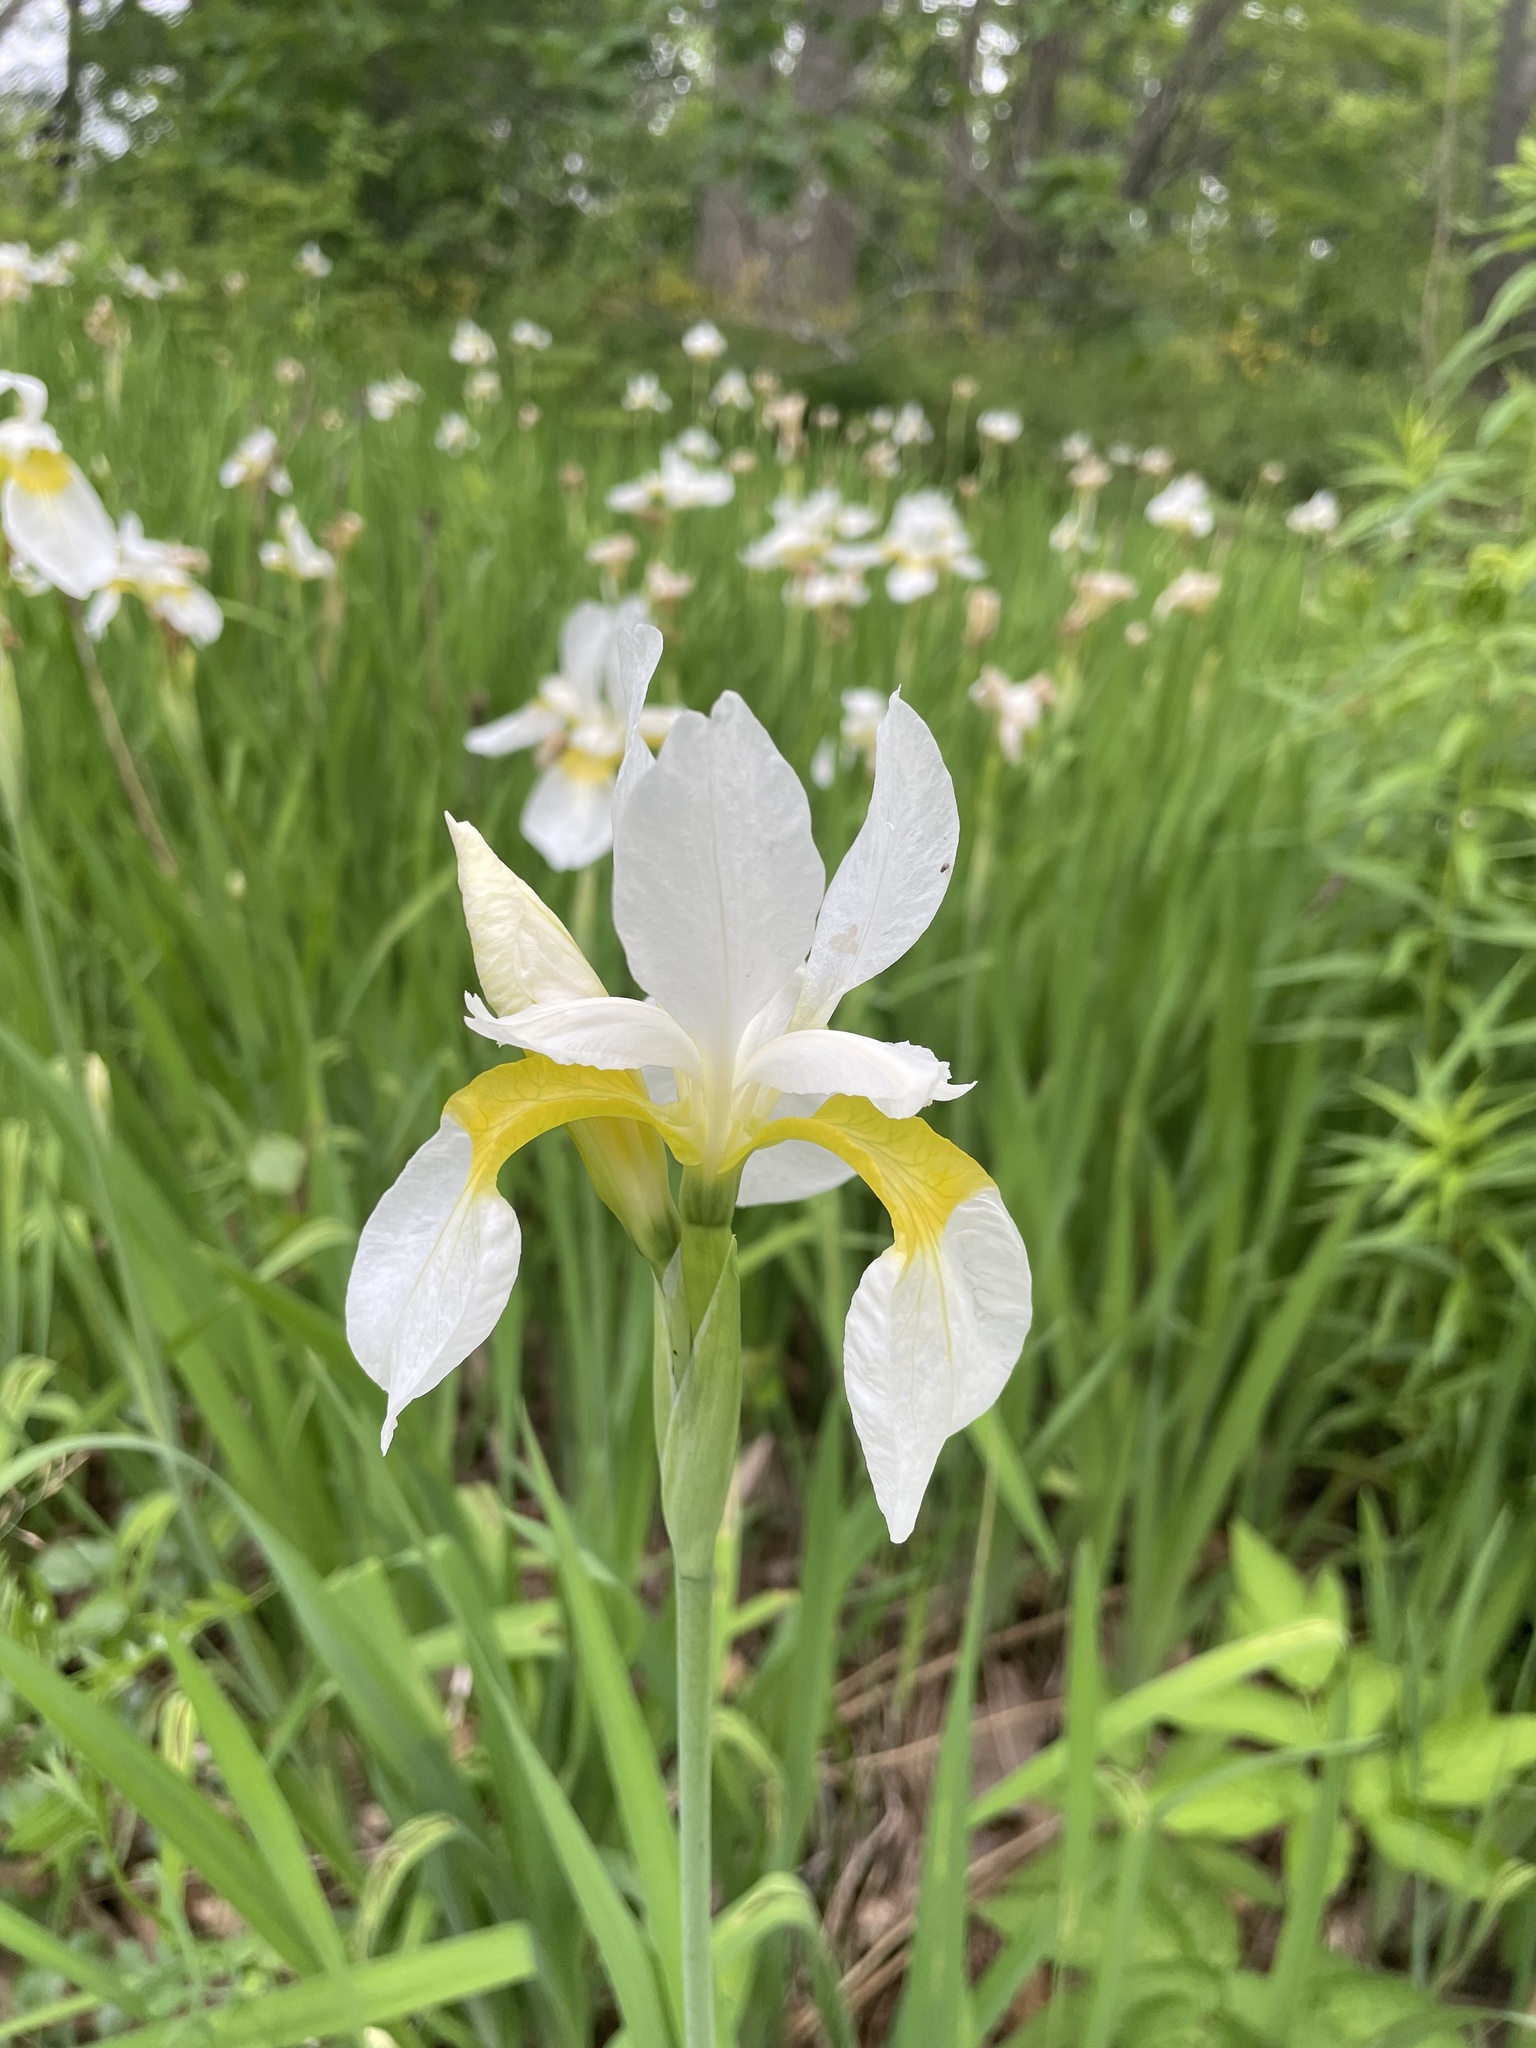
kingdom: Plantae
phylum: Tracheophyta
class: Liliopsida
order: Asparagales
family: Iridaceae
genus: Iris
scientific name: Iris sanguinea
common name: Blood iris
